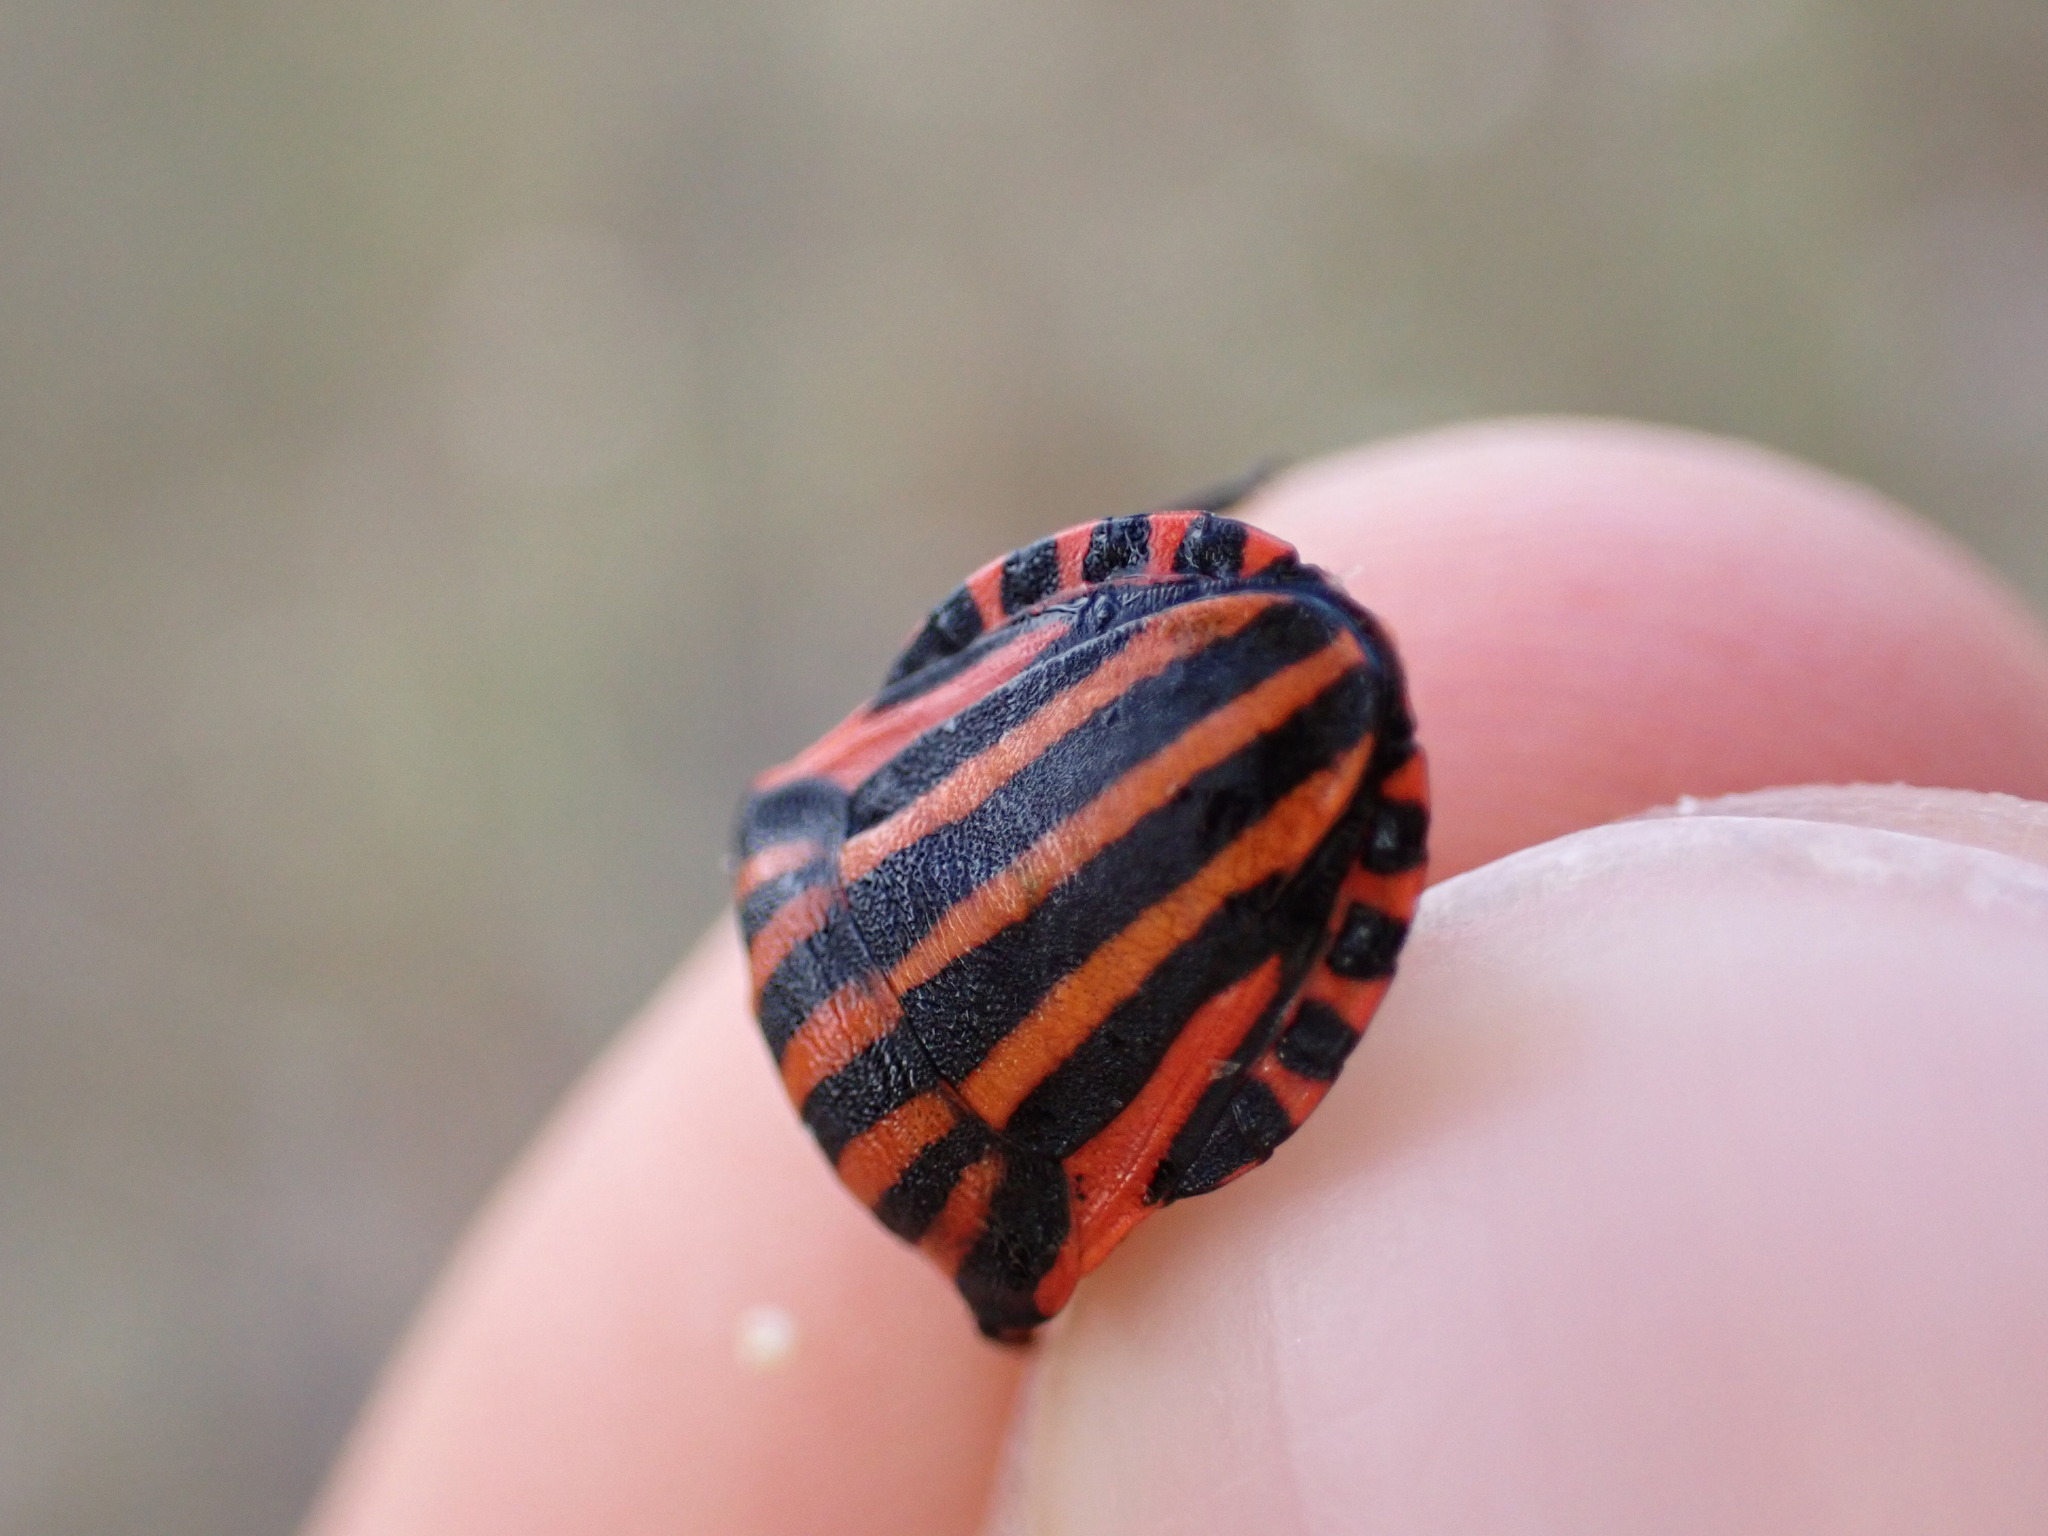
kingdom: Animalia
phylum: Arthropoda
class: Insecta
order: Hemiptera
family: Pentatomidae
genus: Graphosoma
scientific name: Graphosoma italicum
